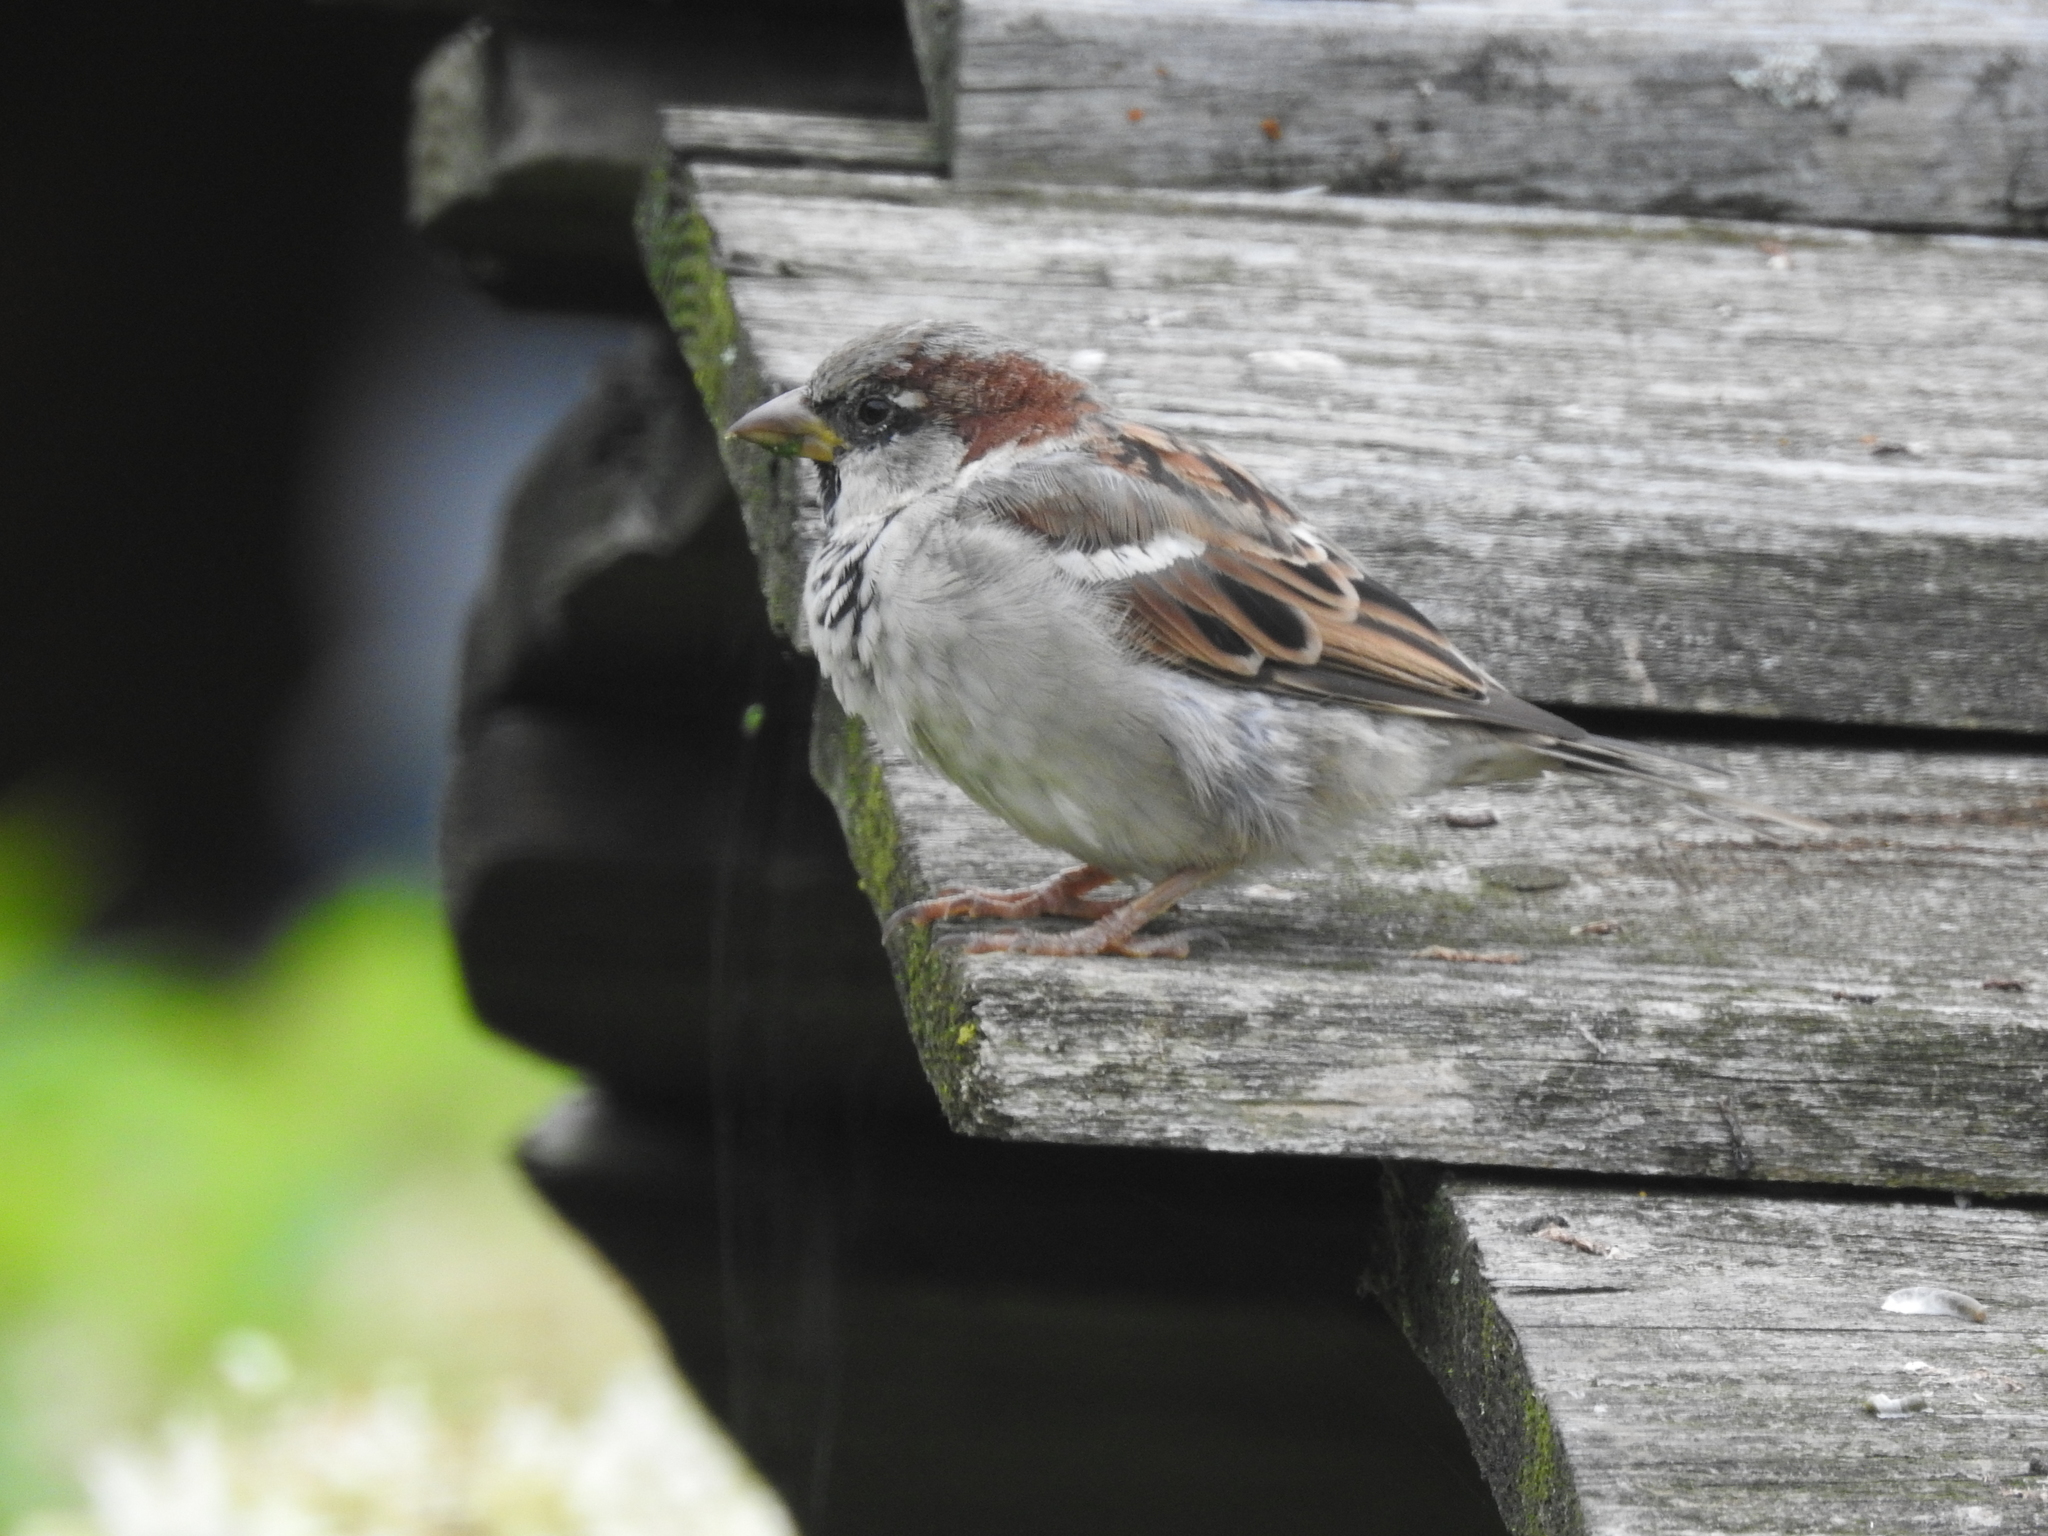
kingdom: Animalia
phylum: Chordata
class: Aves
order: Passeriformes
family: Passeridae
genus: Passer
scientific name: Passer domesticus
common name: House sparrow
